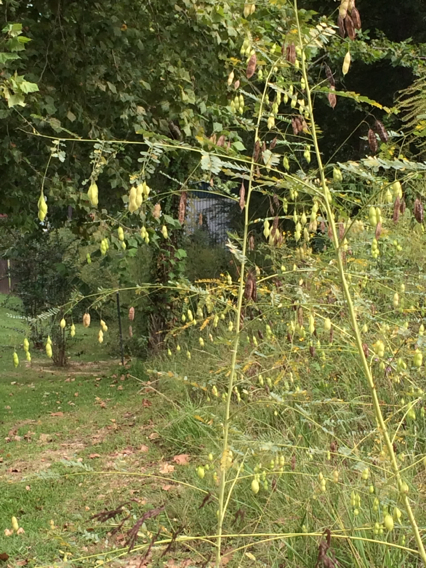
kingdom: Plantae
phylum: Tracheophyta
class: Magnoliopsida
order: Fabales
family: Fabaceae
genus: Sesbania
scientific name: Sesbania vesicaria
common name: Bagpod
